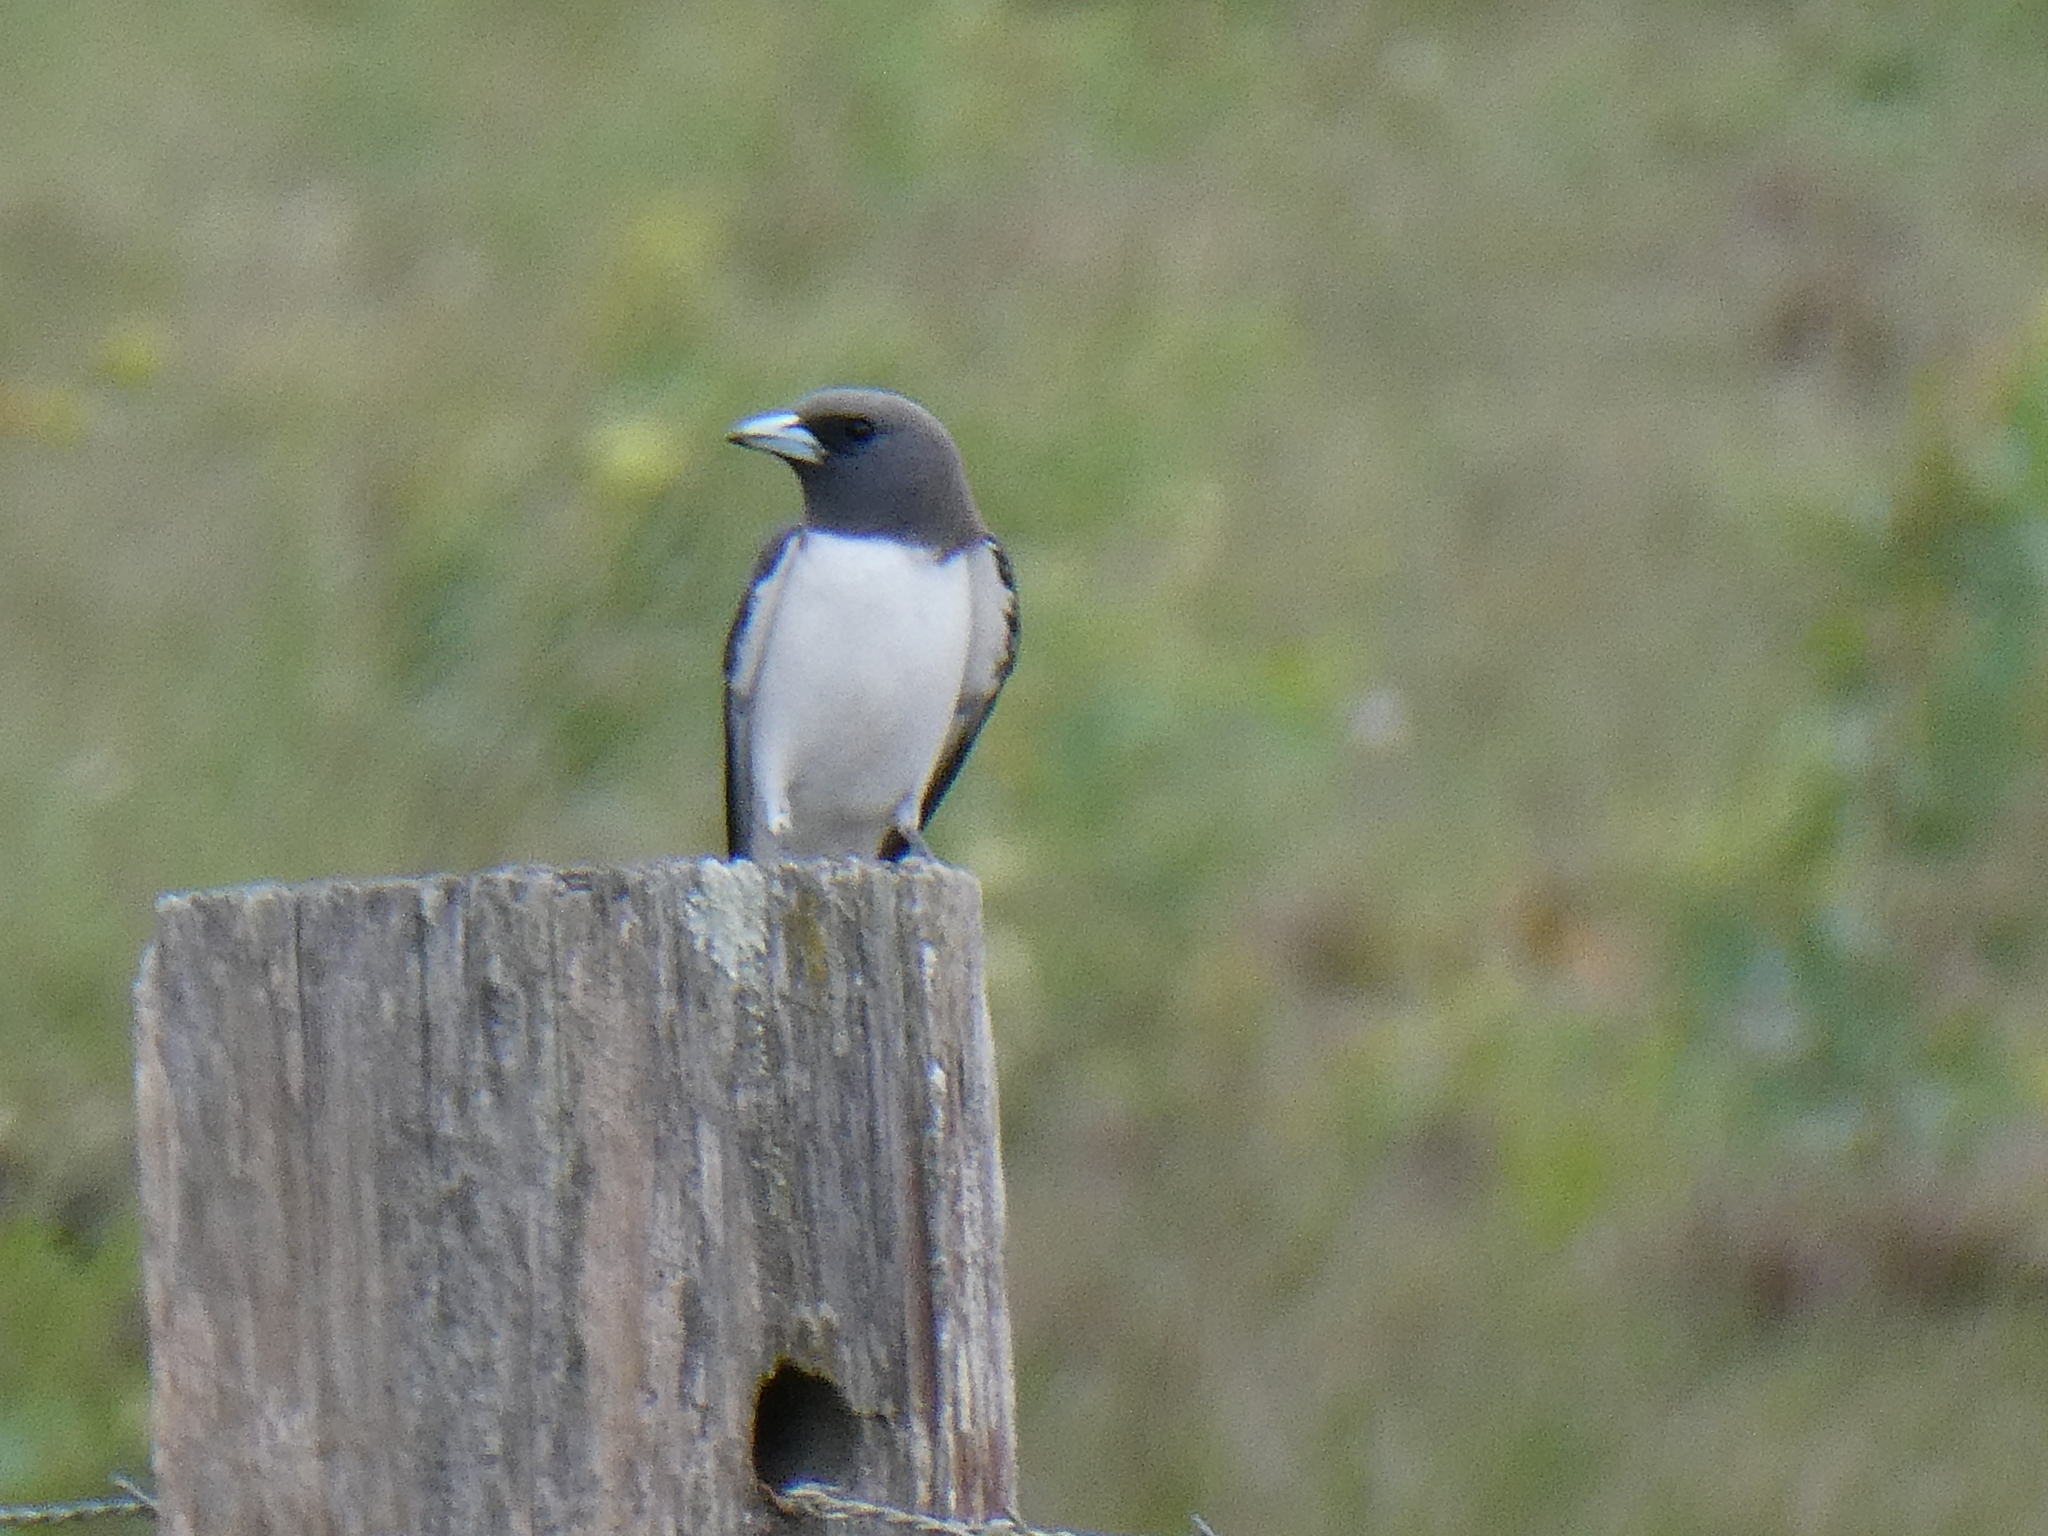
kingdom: Animalia
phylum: Chordata
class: Aves
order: Passeriformes
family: Artamidae
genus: Artamus
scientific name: Artamus leucoryn
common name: White-breasted woodswallow
